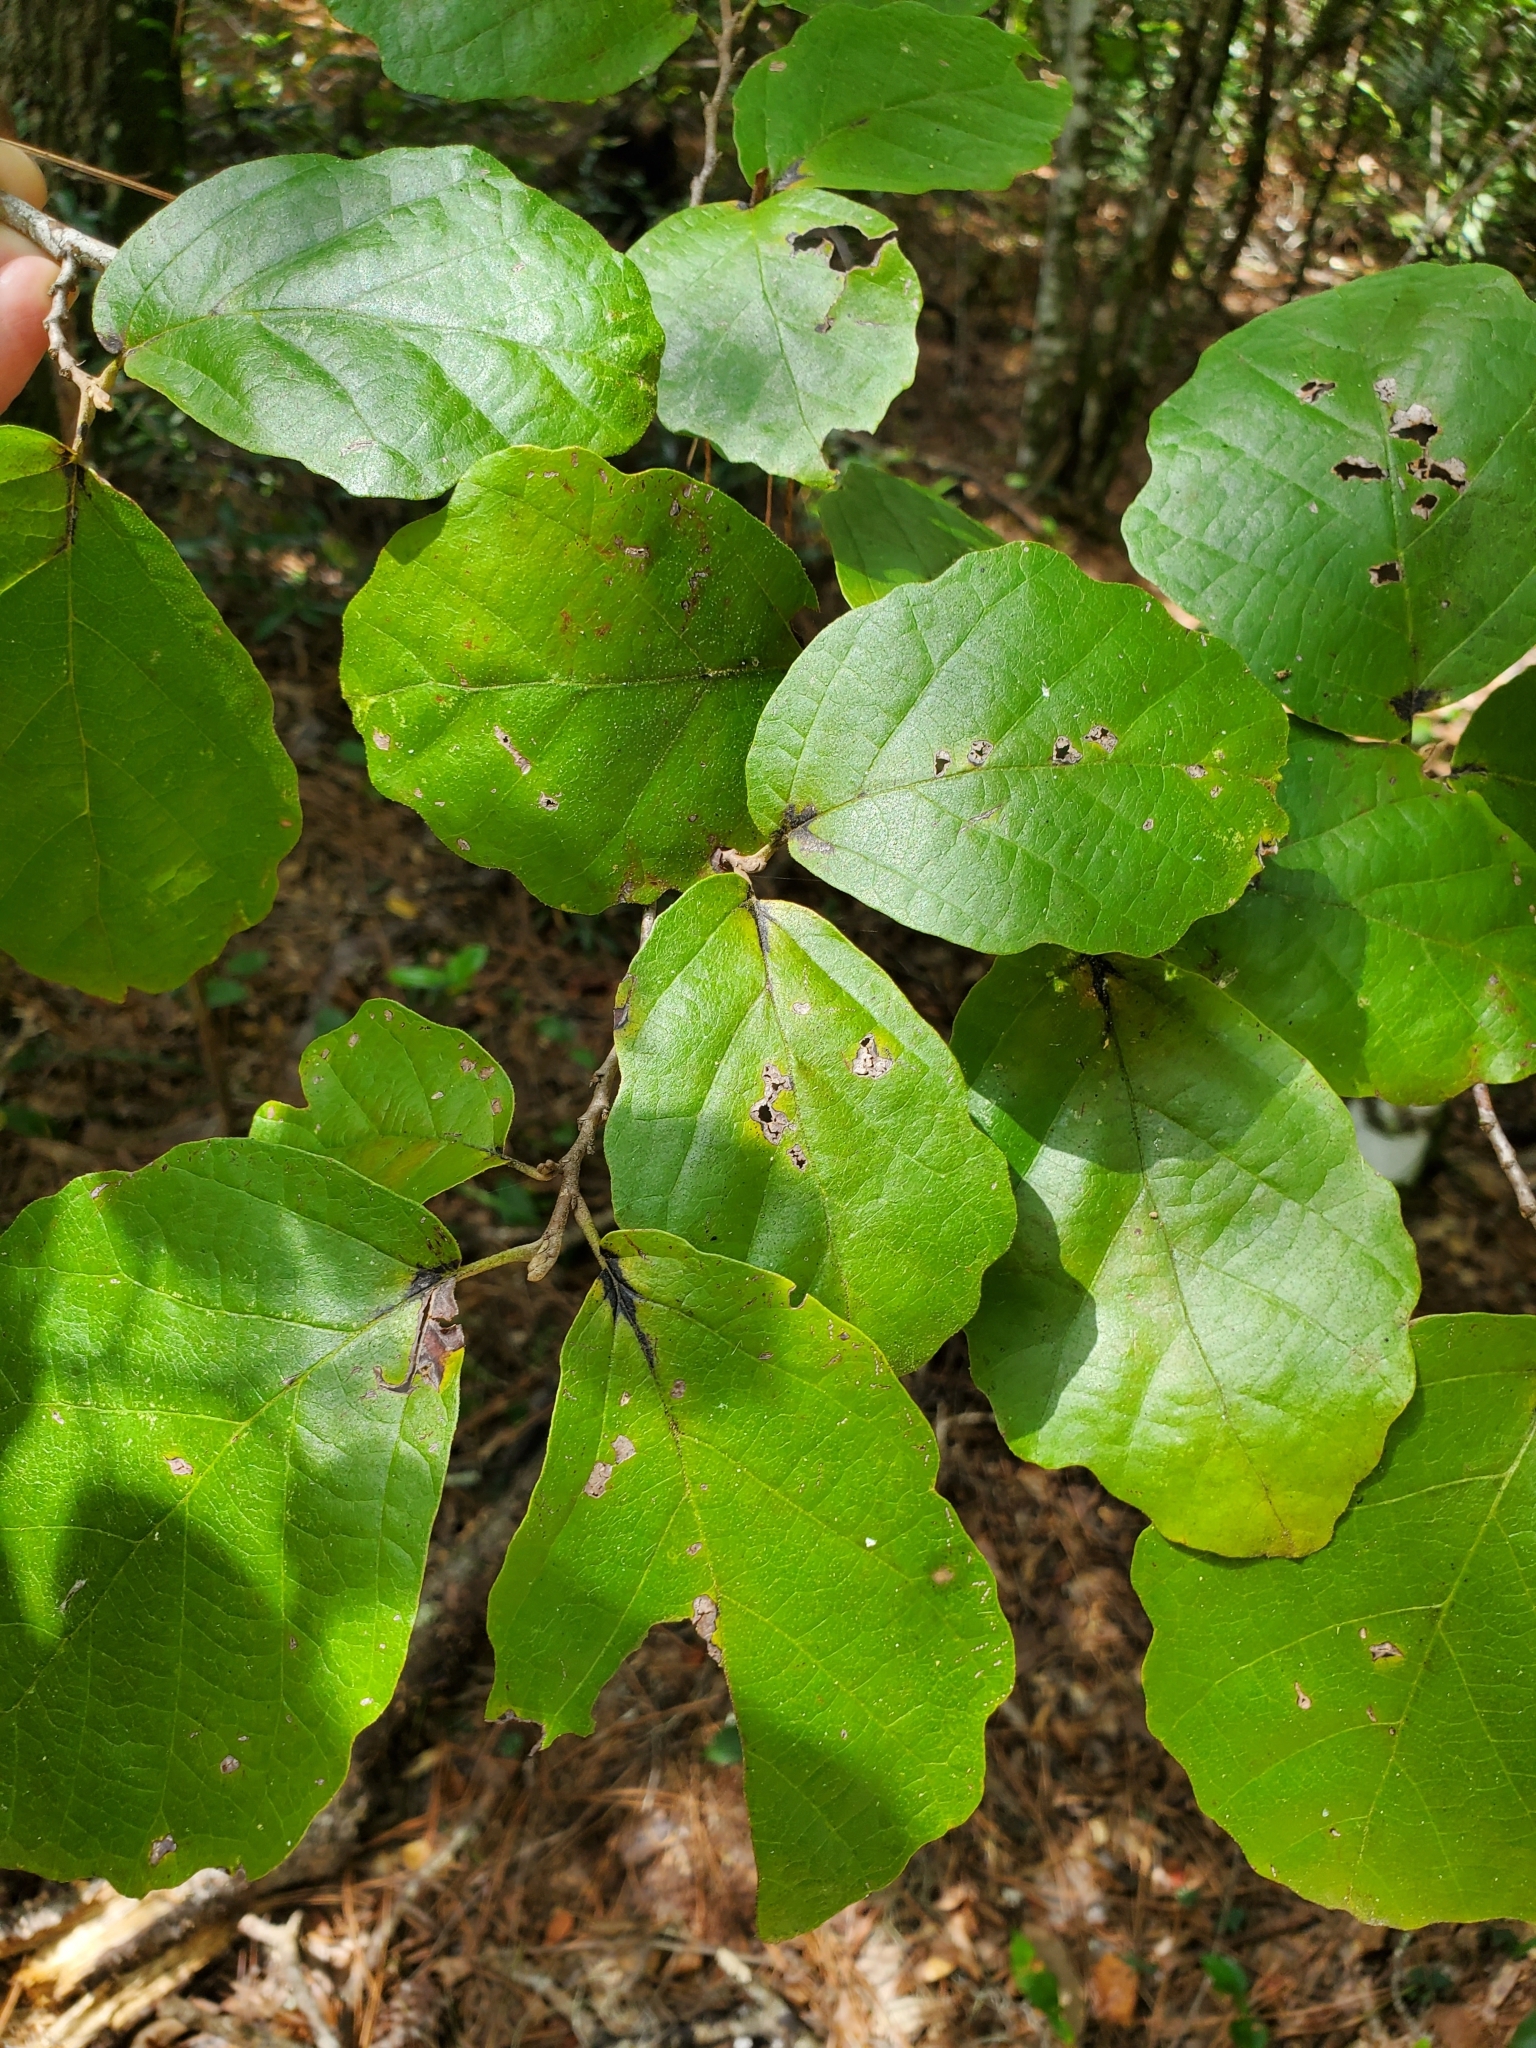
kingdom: Plantae
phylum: Tracheophyta
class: Magnoliopsida
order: Saxifragales
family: Hamamelidaceae
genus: Hamamelis
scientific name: Hamamelis virginiana
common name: Witch-hazel
